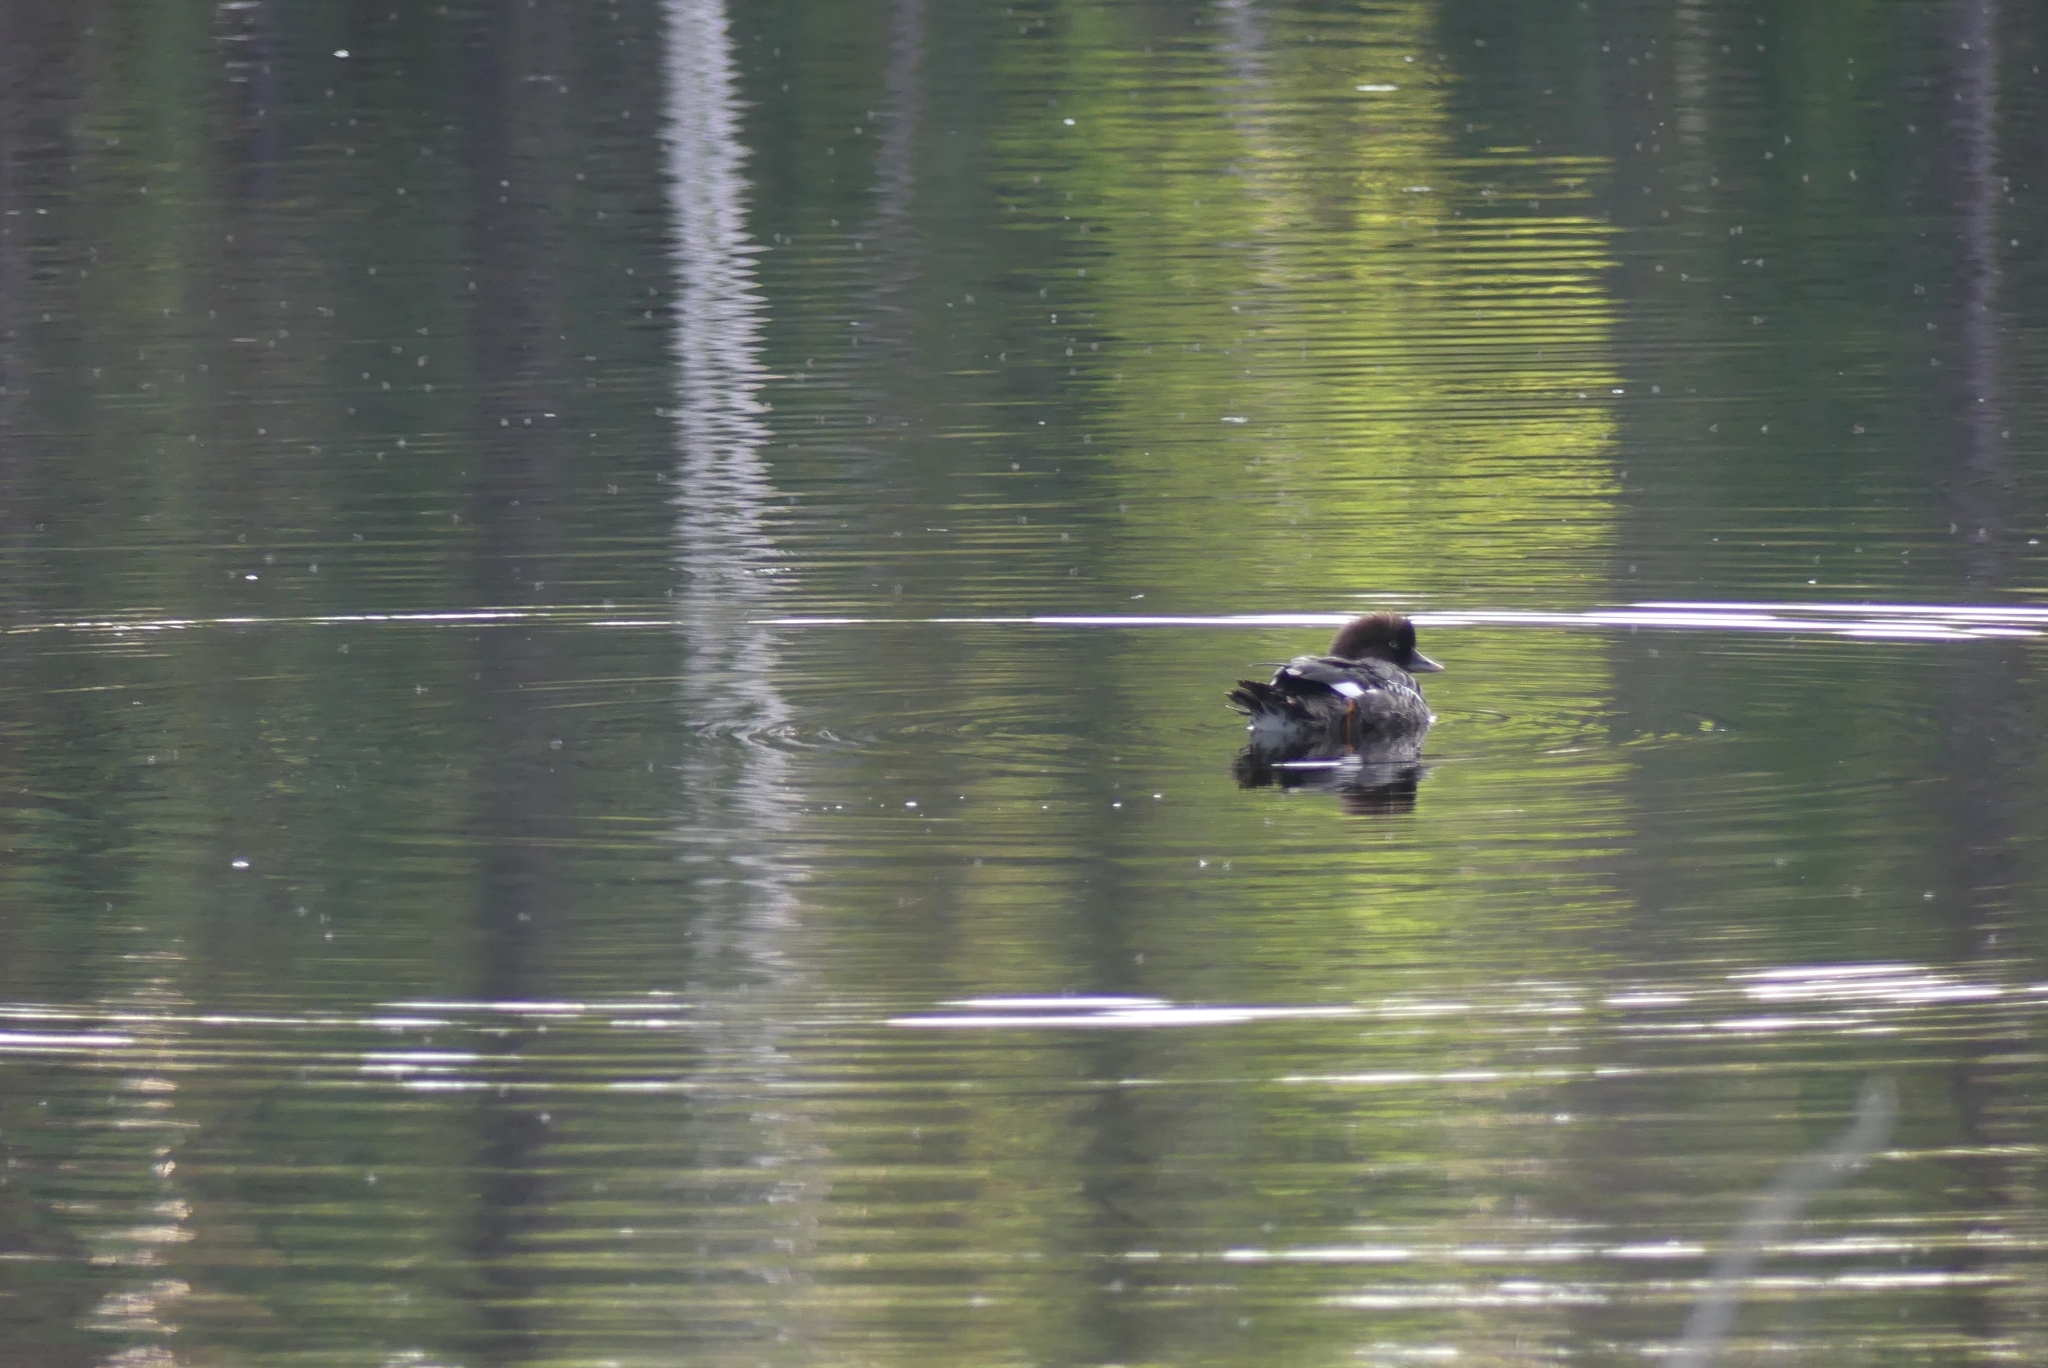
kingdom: Animalia
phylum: Chordata
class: Aves
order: Anseriformes
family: Anatidae
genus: Bucephala
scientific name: Bucephala islandica
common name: Barrow's goldeneye
